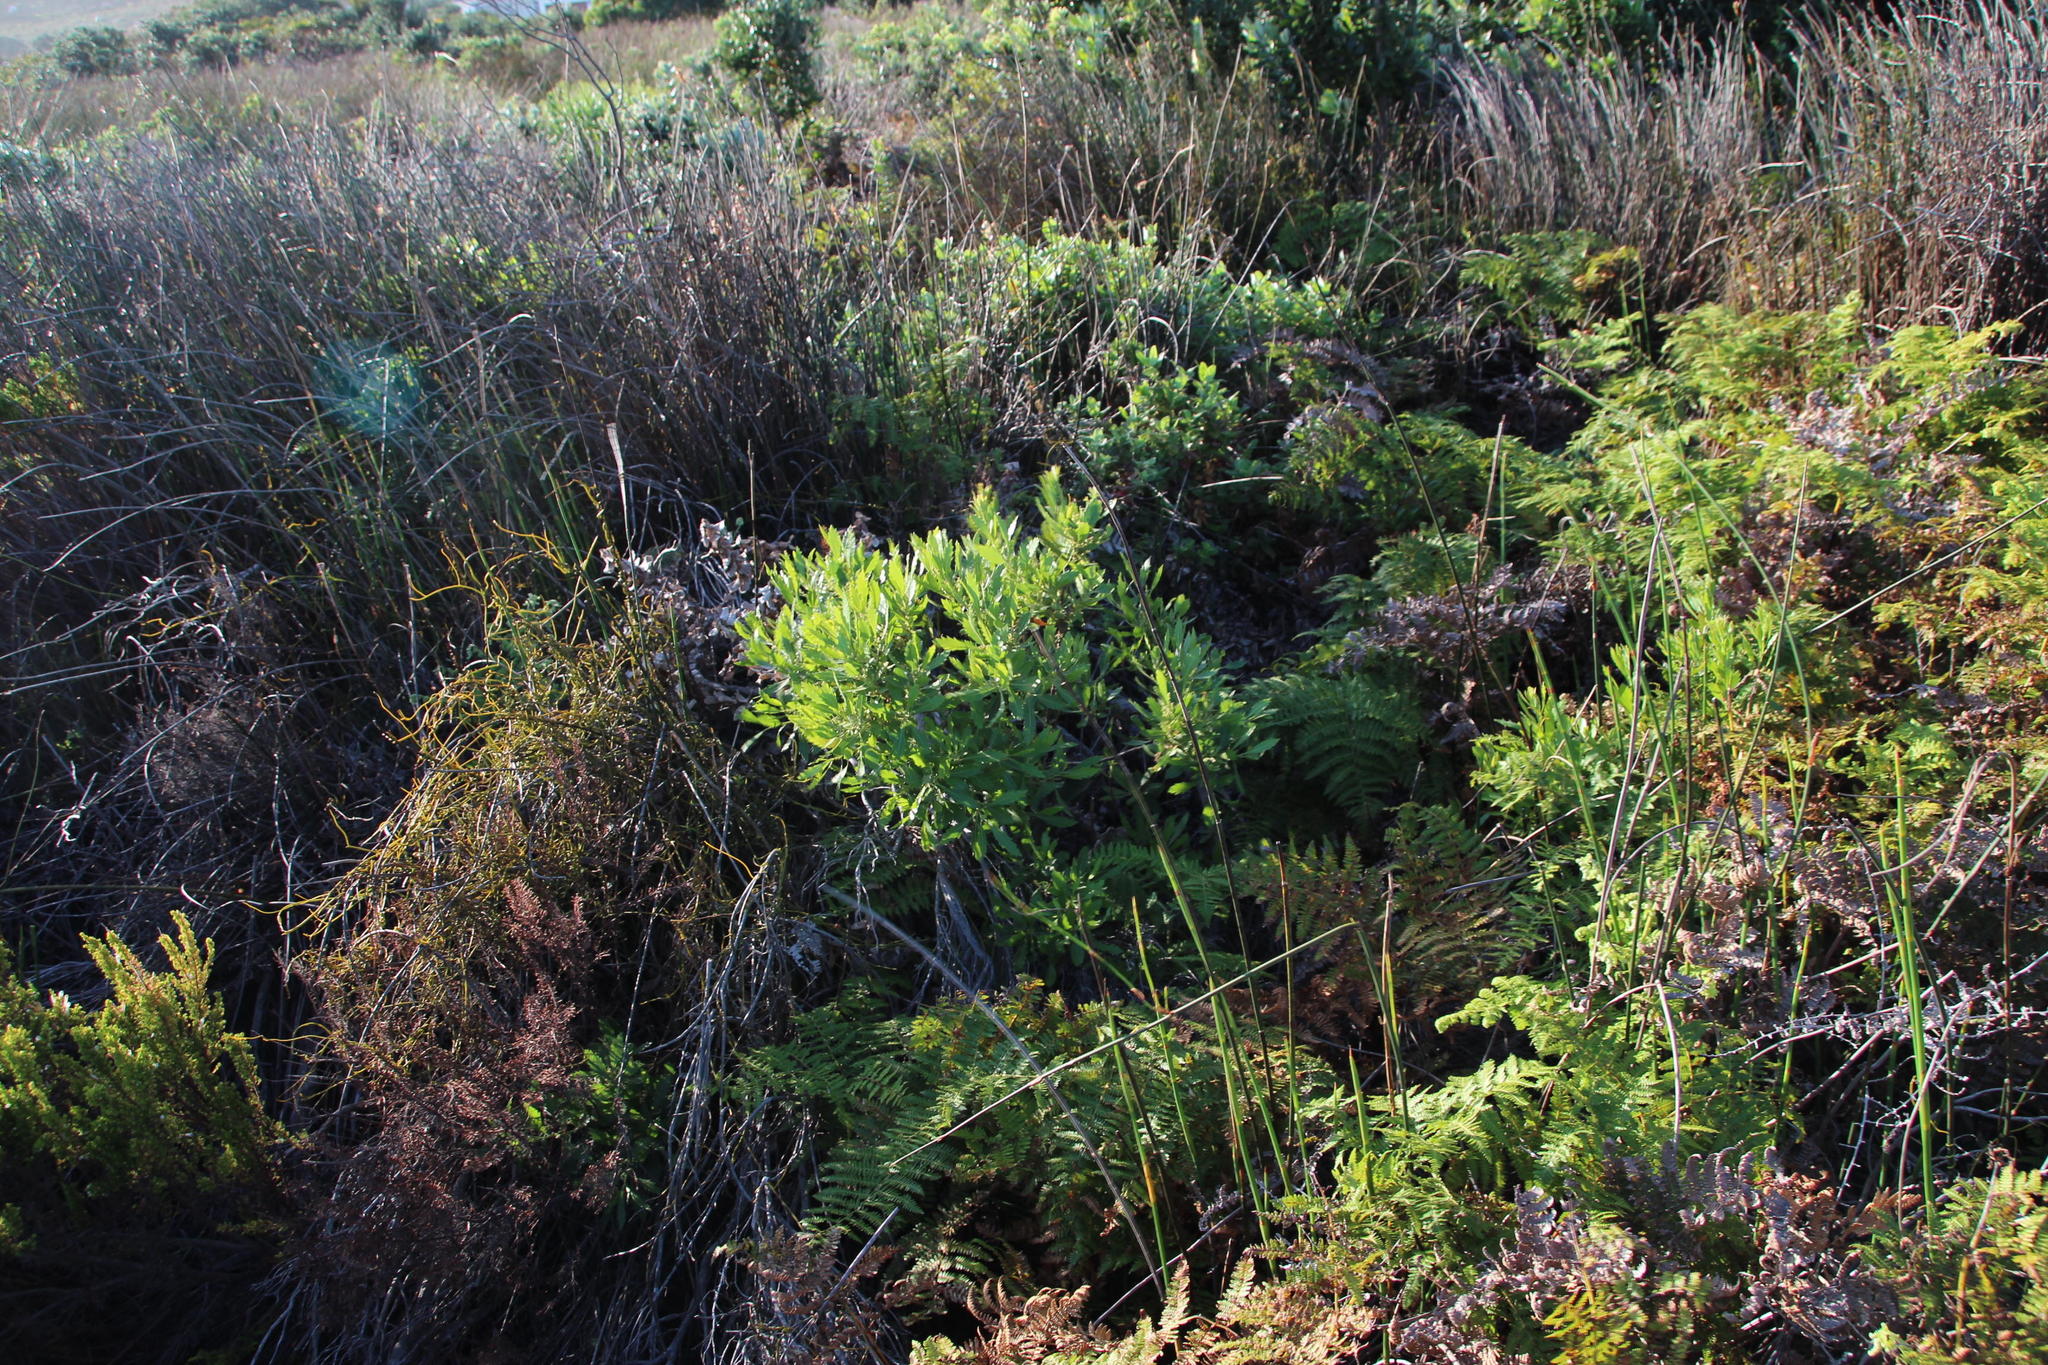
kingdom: Plantae
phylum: Tracheophyta
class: Magnoliopsida
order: Fagales
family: Myricaceae
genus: Morella
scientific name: Morella serrata
